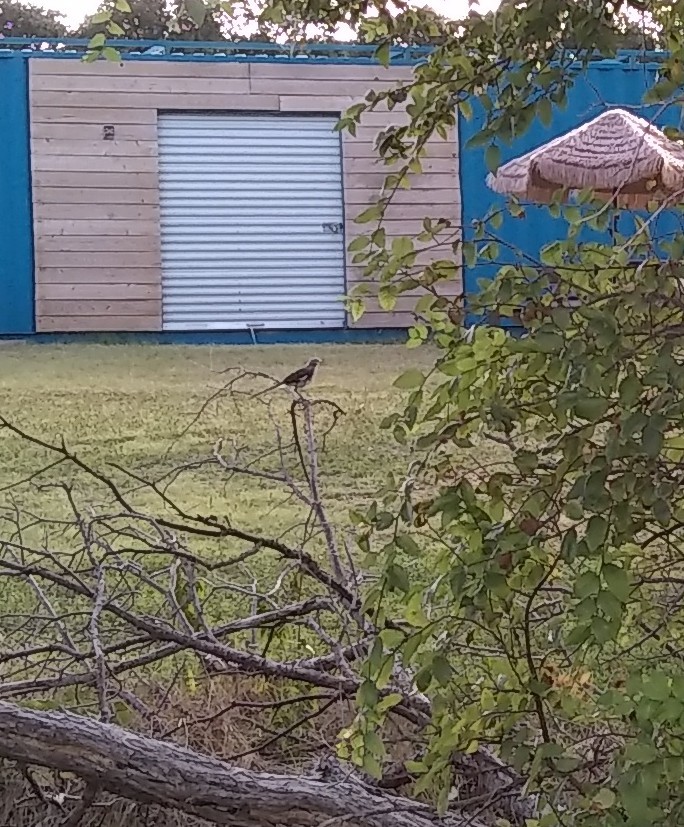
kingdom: Animalia
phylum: Chordata
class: Aves
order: Passeriformes
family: Mimidae
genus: Mimus
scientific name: Mimus polyglottos
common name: Northern mockingbird
